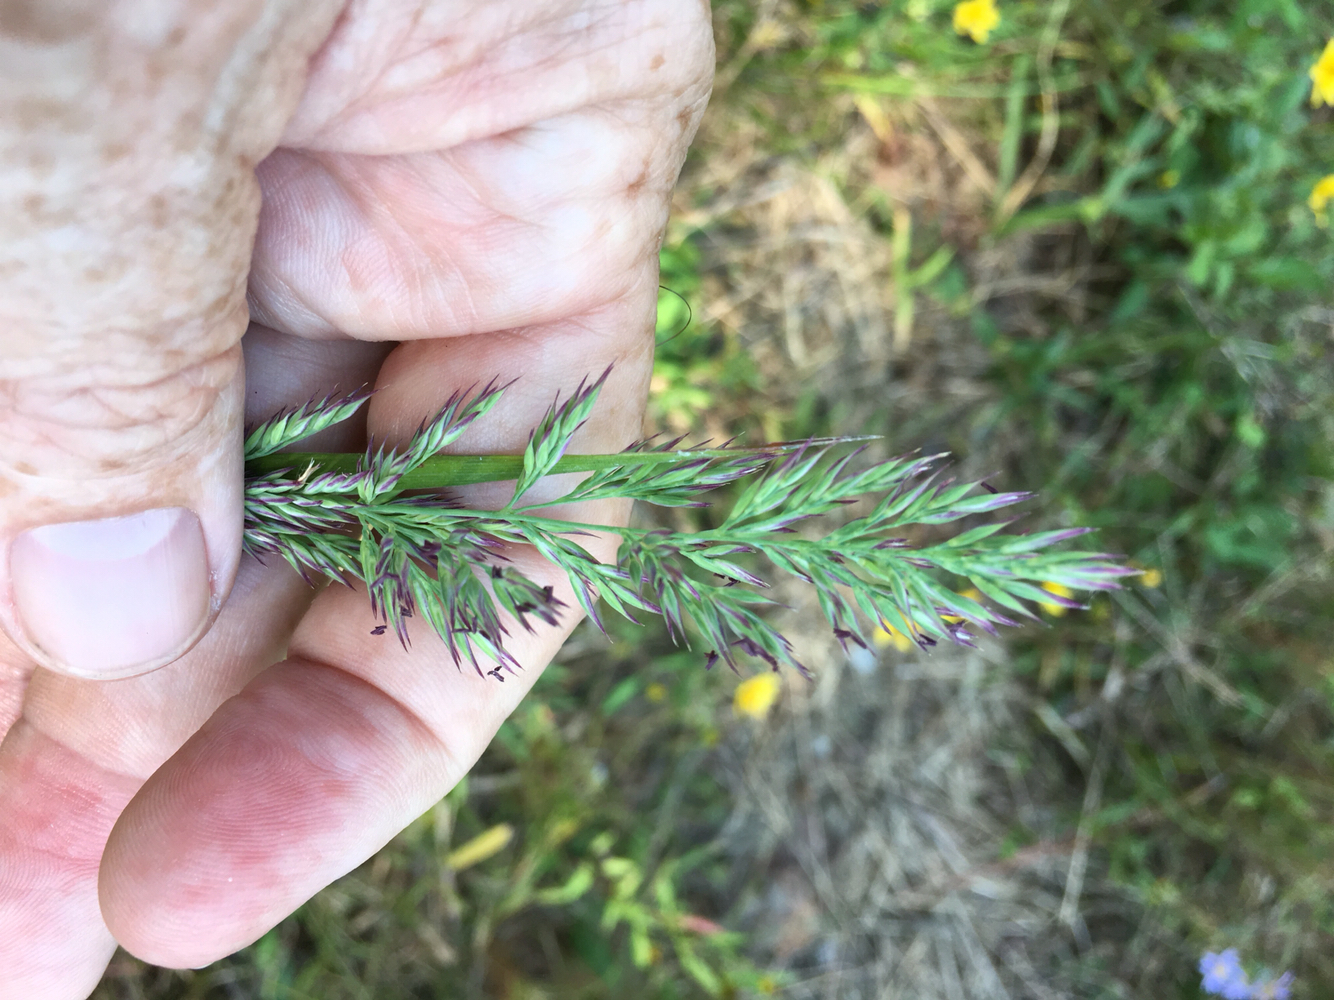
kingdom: Plantae
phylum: Tracheophyta
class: Liliopsida
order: Poales
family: Poaceae
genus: Greeneochloa
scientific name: Greeneochloa coarctata
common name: Small reedgrass
